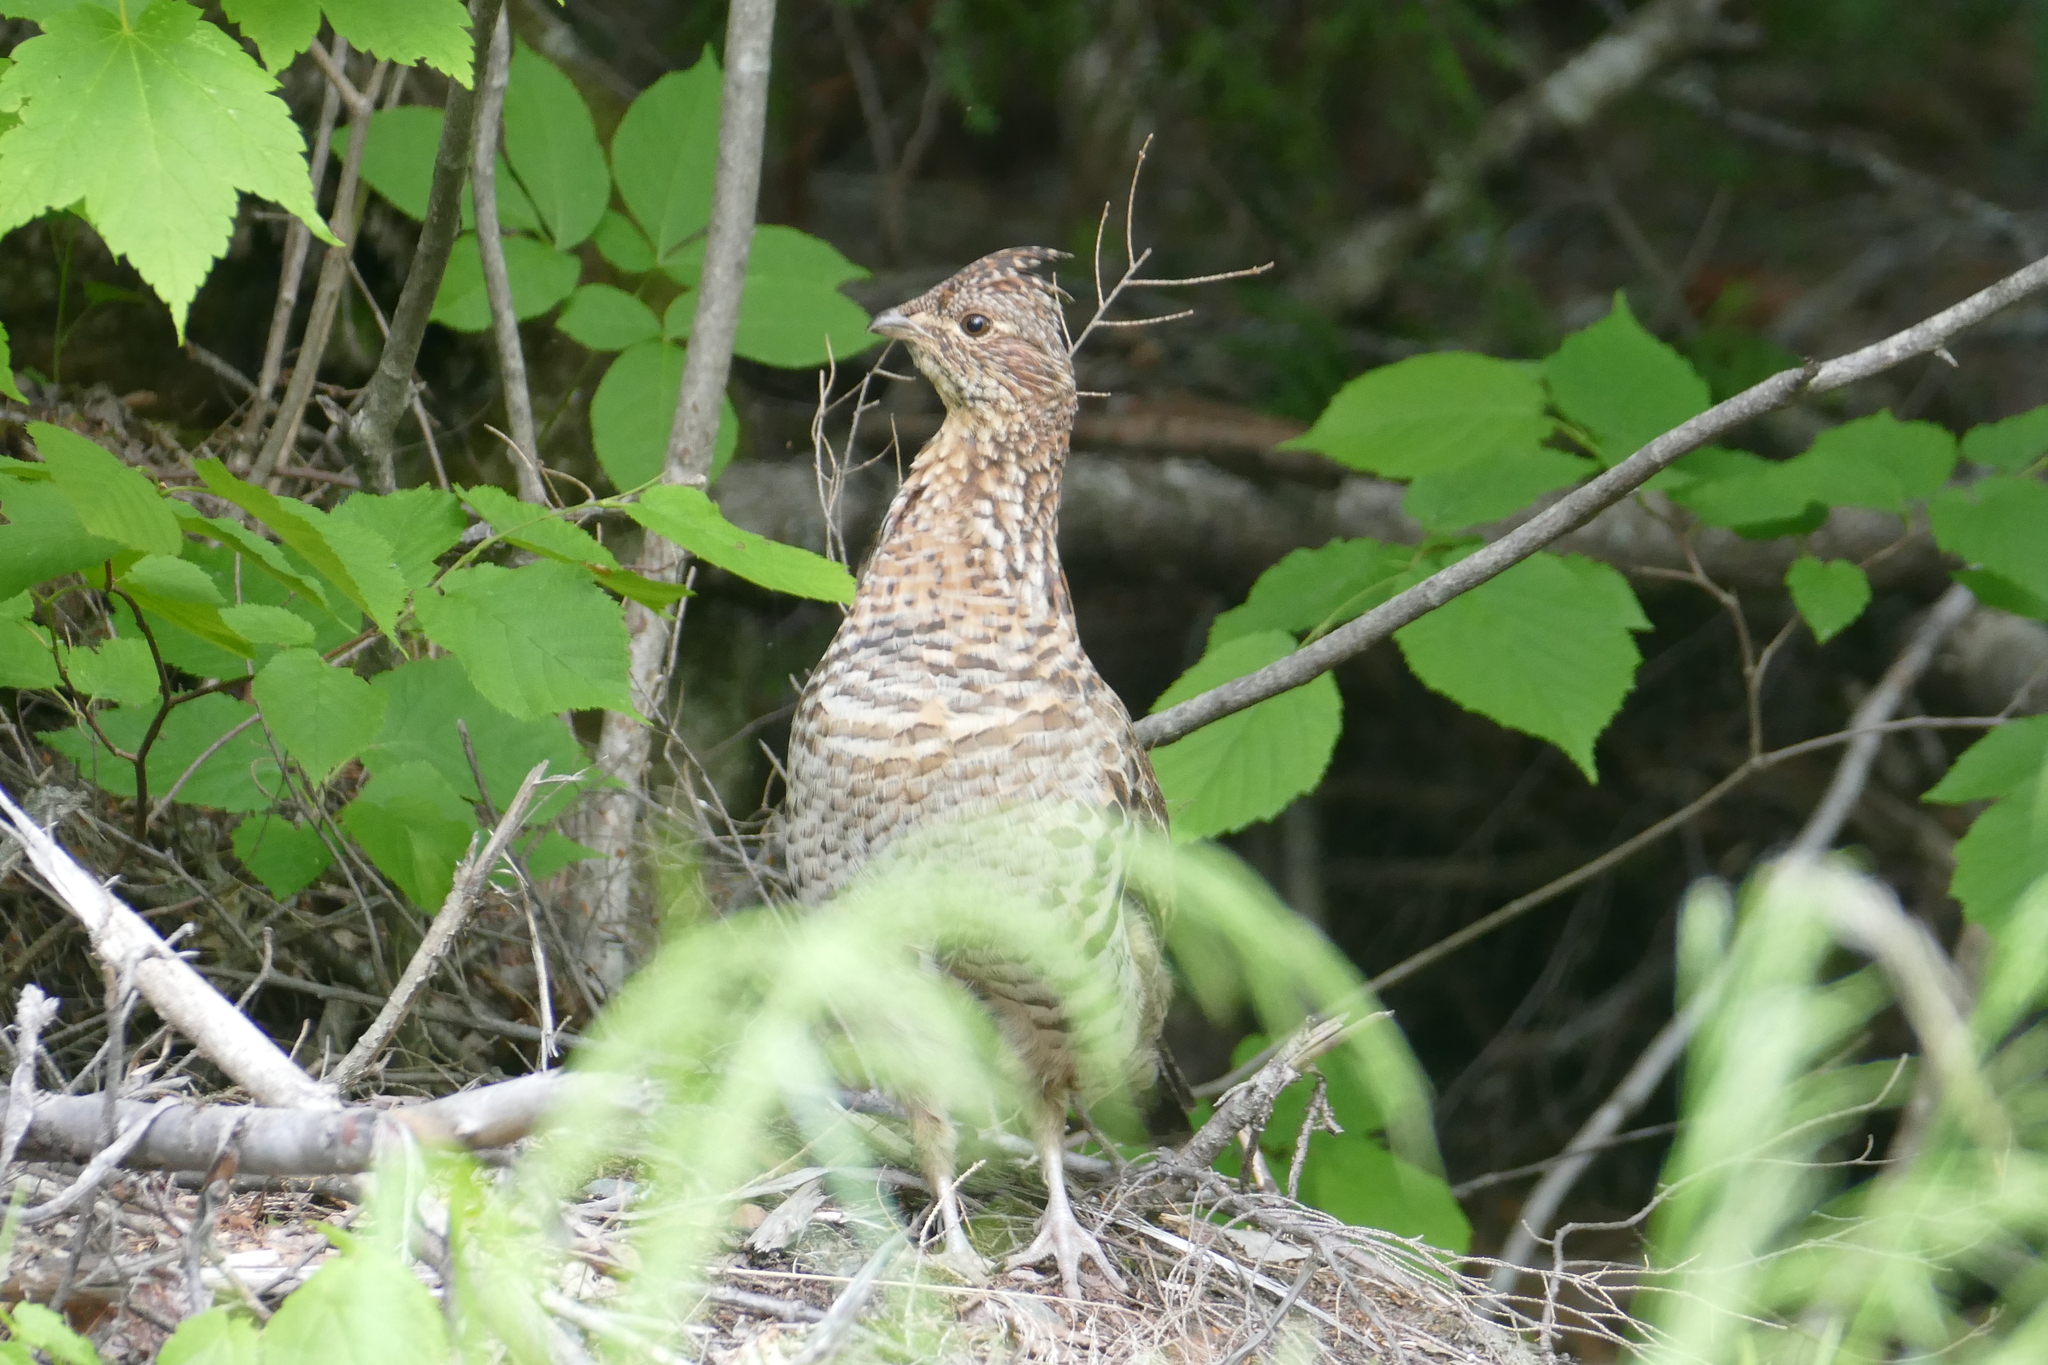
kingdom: Animalia
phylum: Chordata
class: Aves
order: Galliformes
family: Phasianidae
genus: Bonasa
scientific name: Bonasa umbellus
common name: Ruffed grouse
